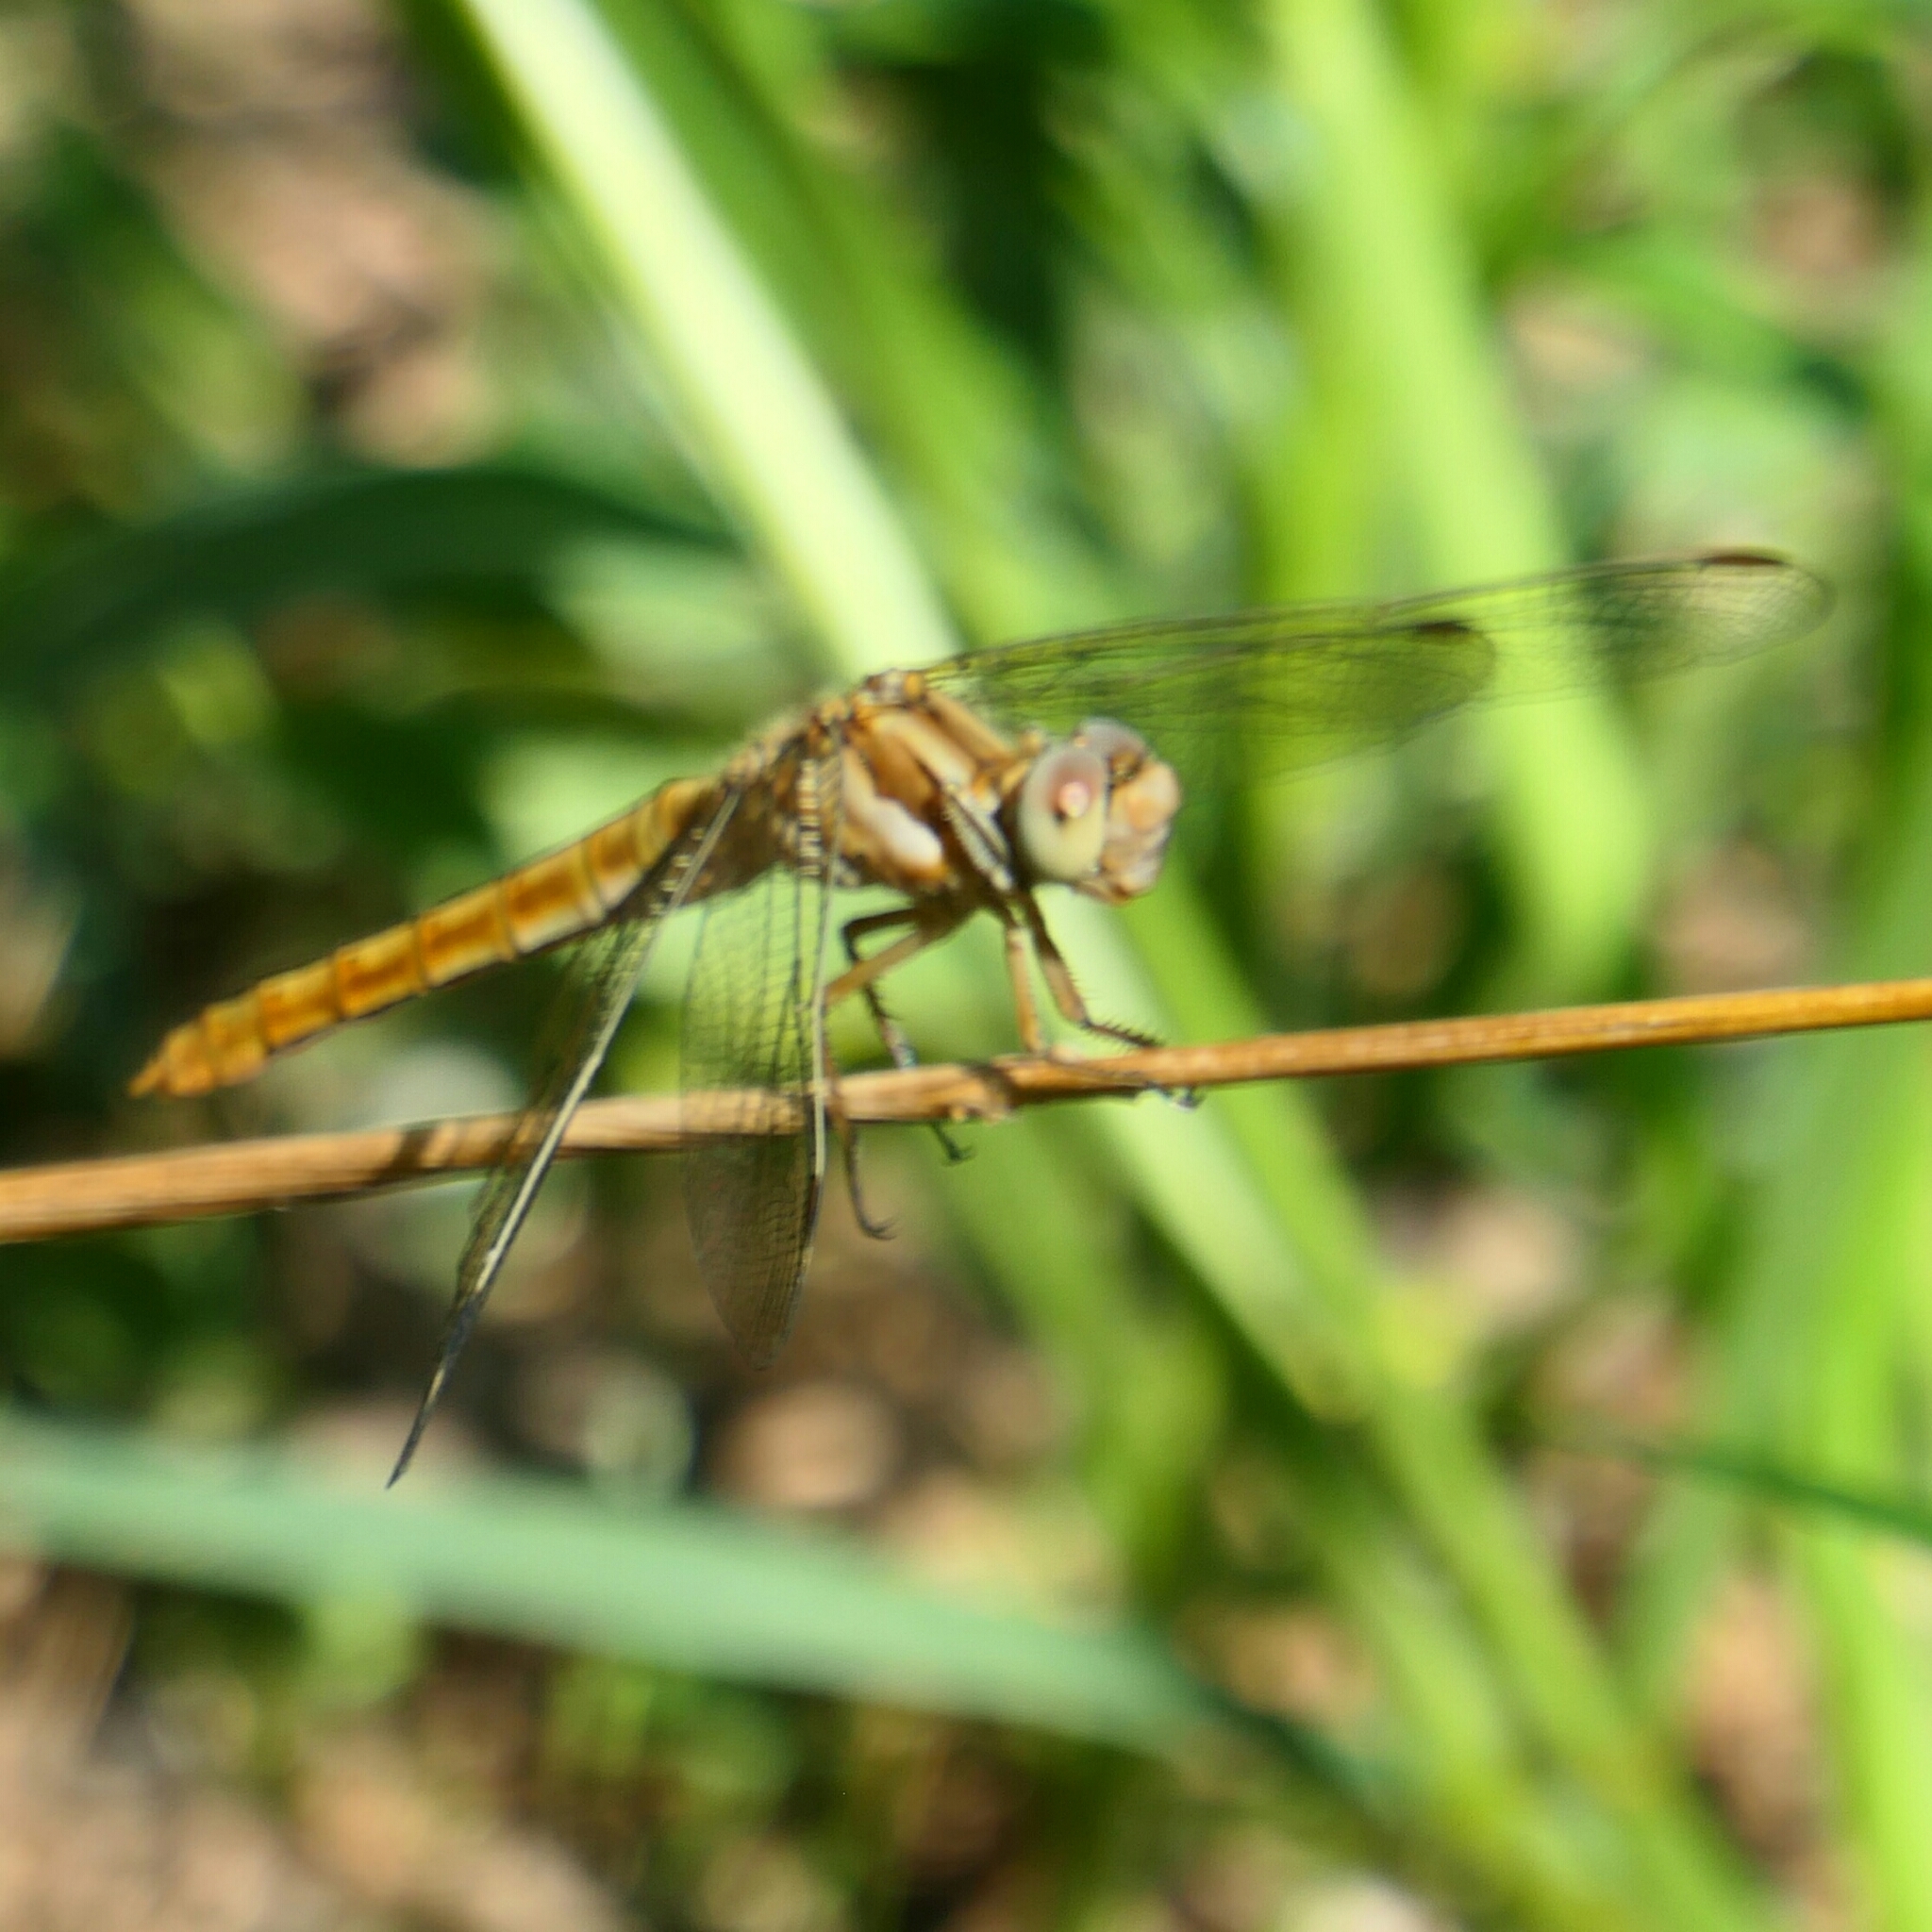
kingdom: Animalia
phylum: Arthropoda
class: Insecta
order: Odonata
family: Libellulidae
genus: Orthetrum
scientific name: Orthetrum brunneum
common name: Southern skimmer
